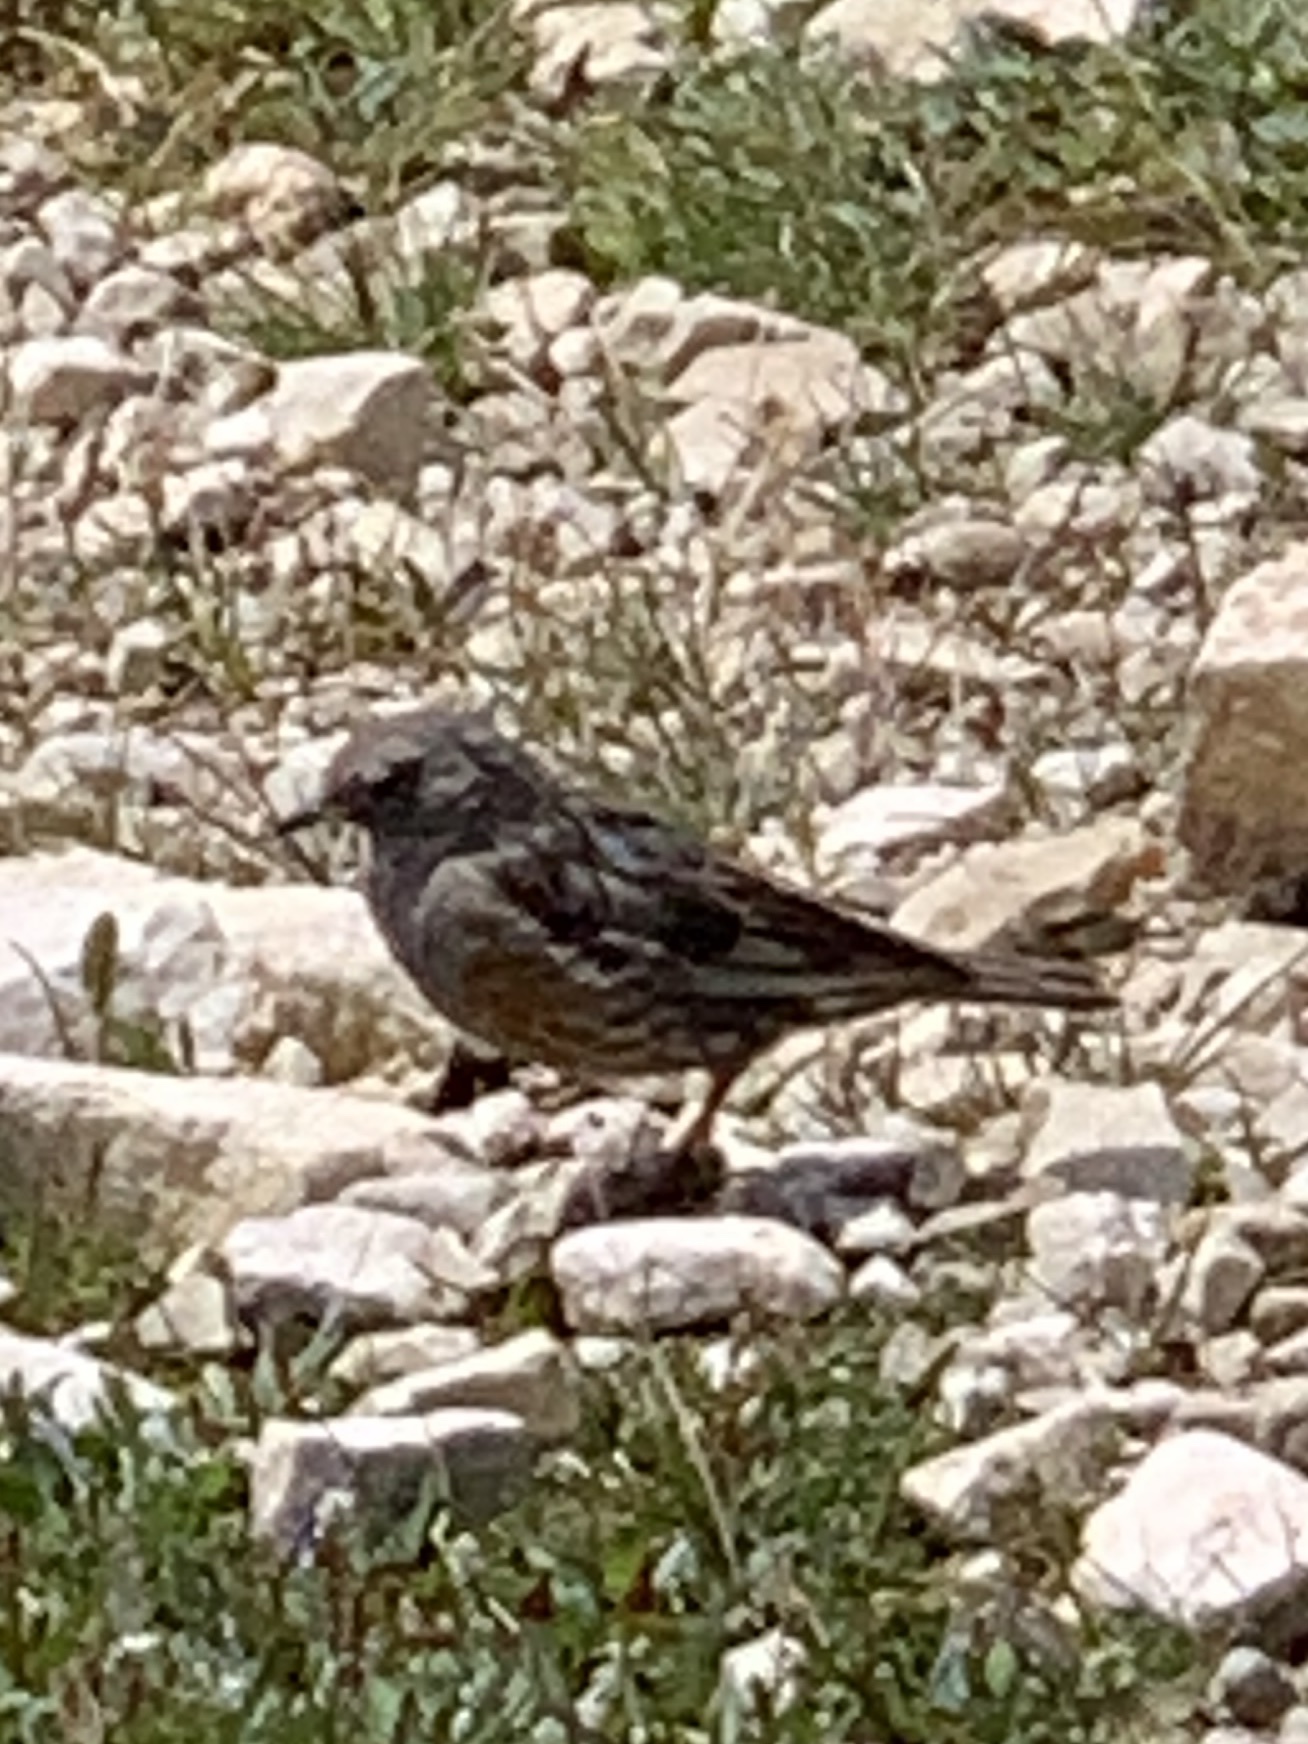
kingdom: Animalia
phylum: Chordata
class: Aves
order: Passeriformes
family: Prunellidae
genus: Prunella
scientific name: Prunella collaris
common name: Alpine accentor
